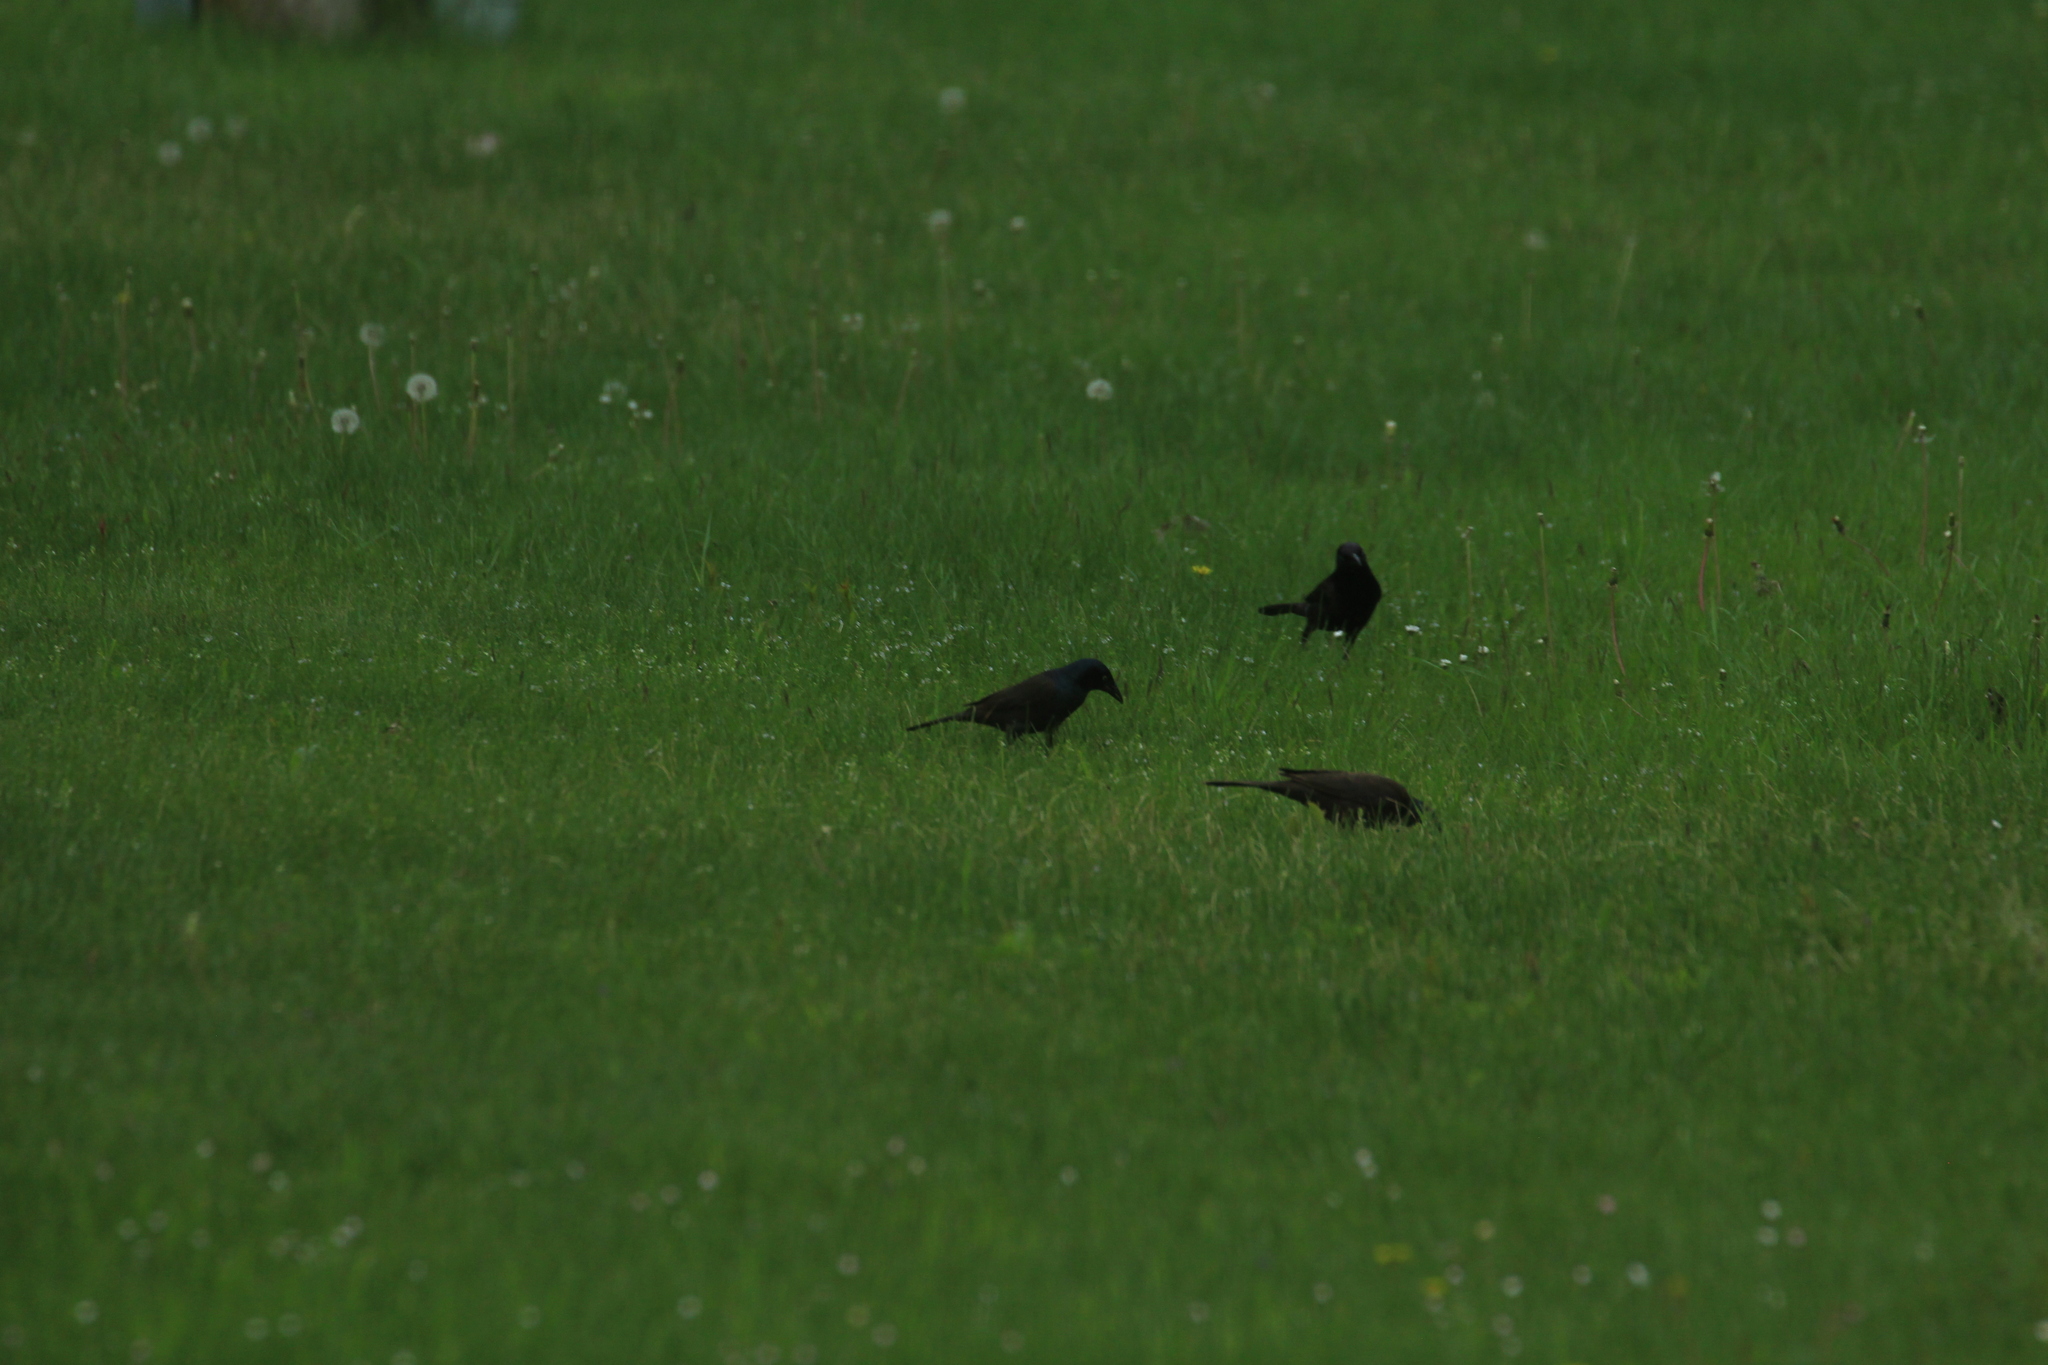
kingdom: Animalia
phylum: Chordata
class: Aves
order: Passeriformes
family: Icteridae
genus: Quiscalus
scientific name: Quiscalus quiscula
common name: Common grackle
